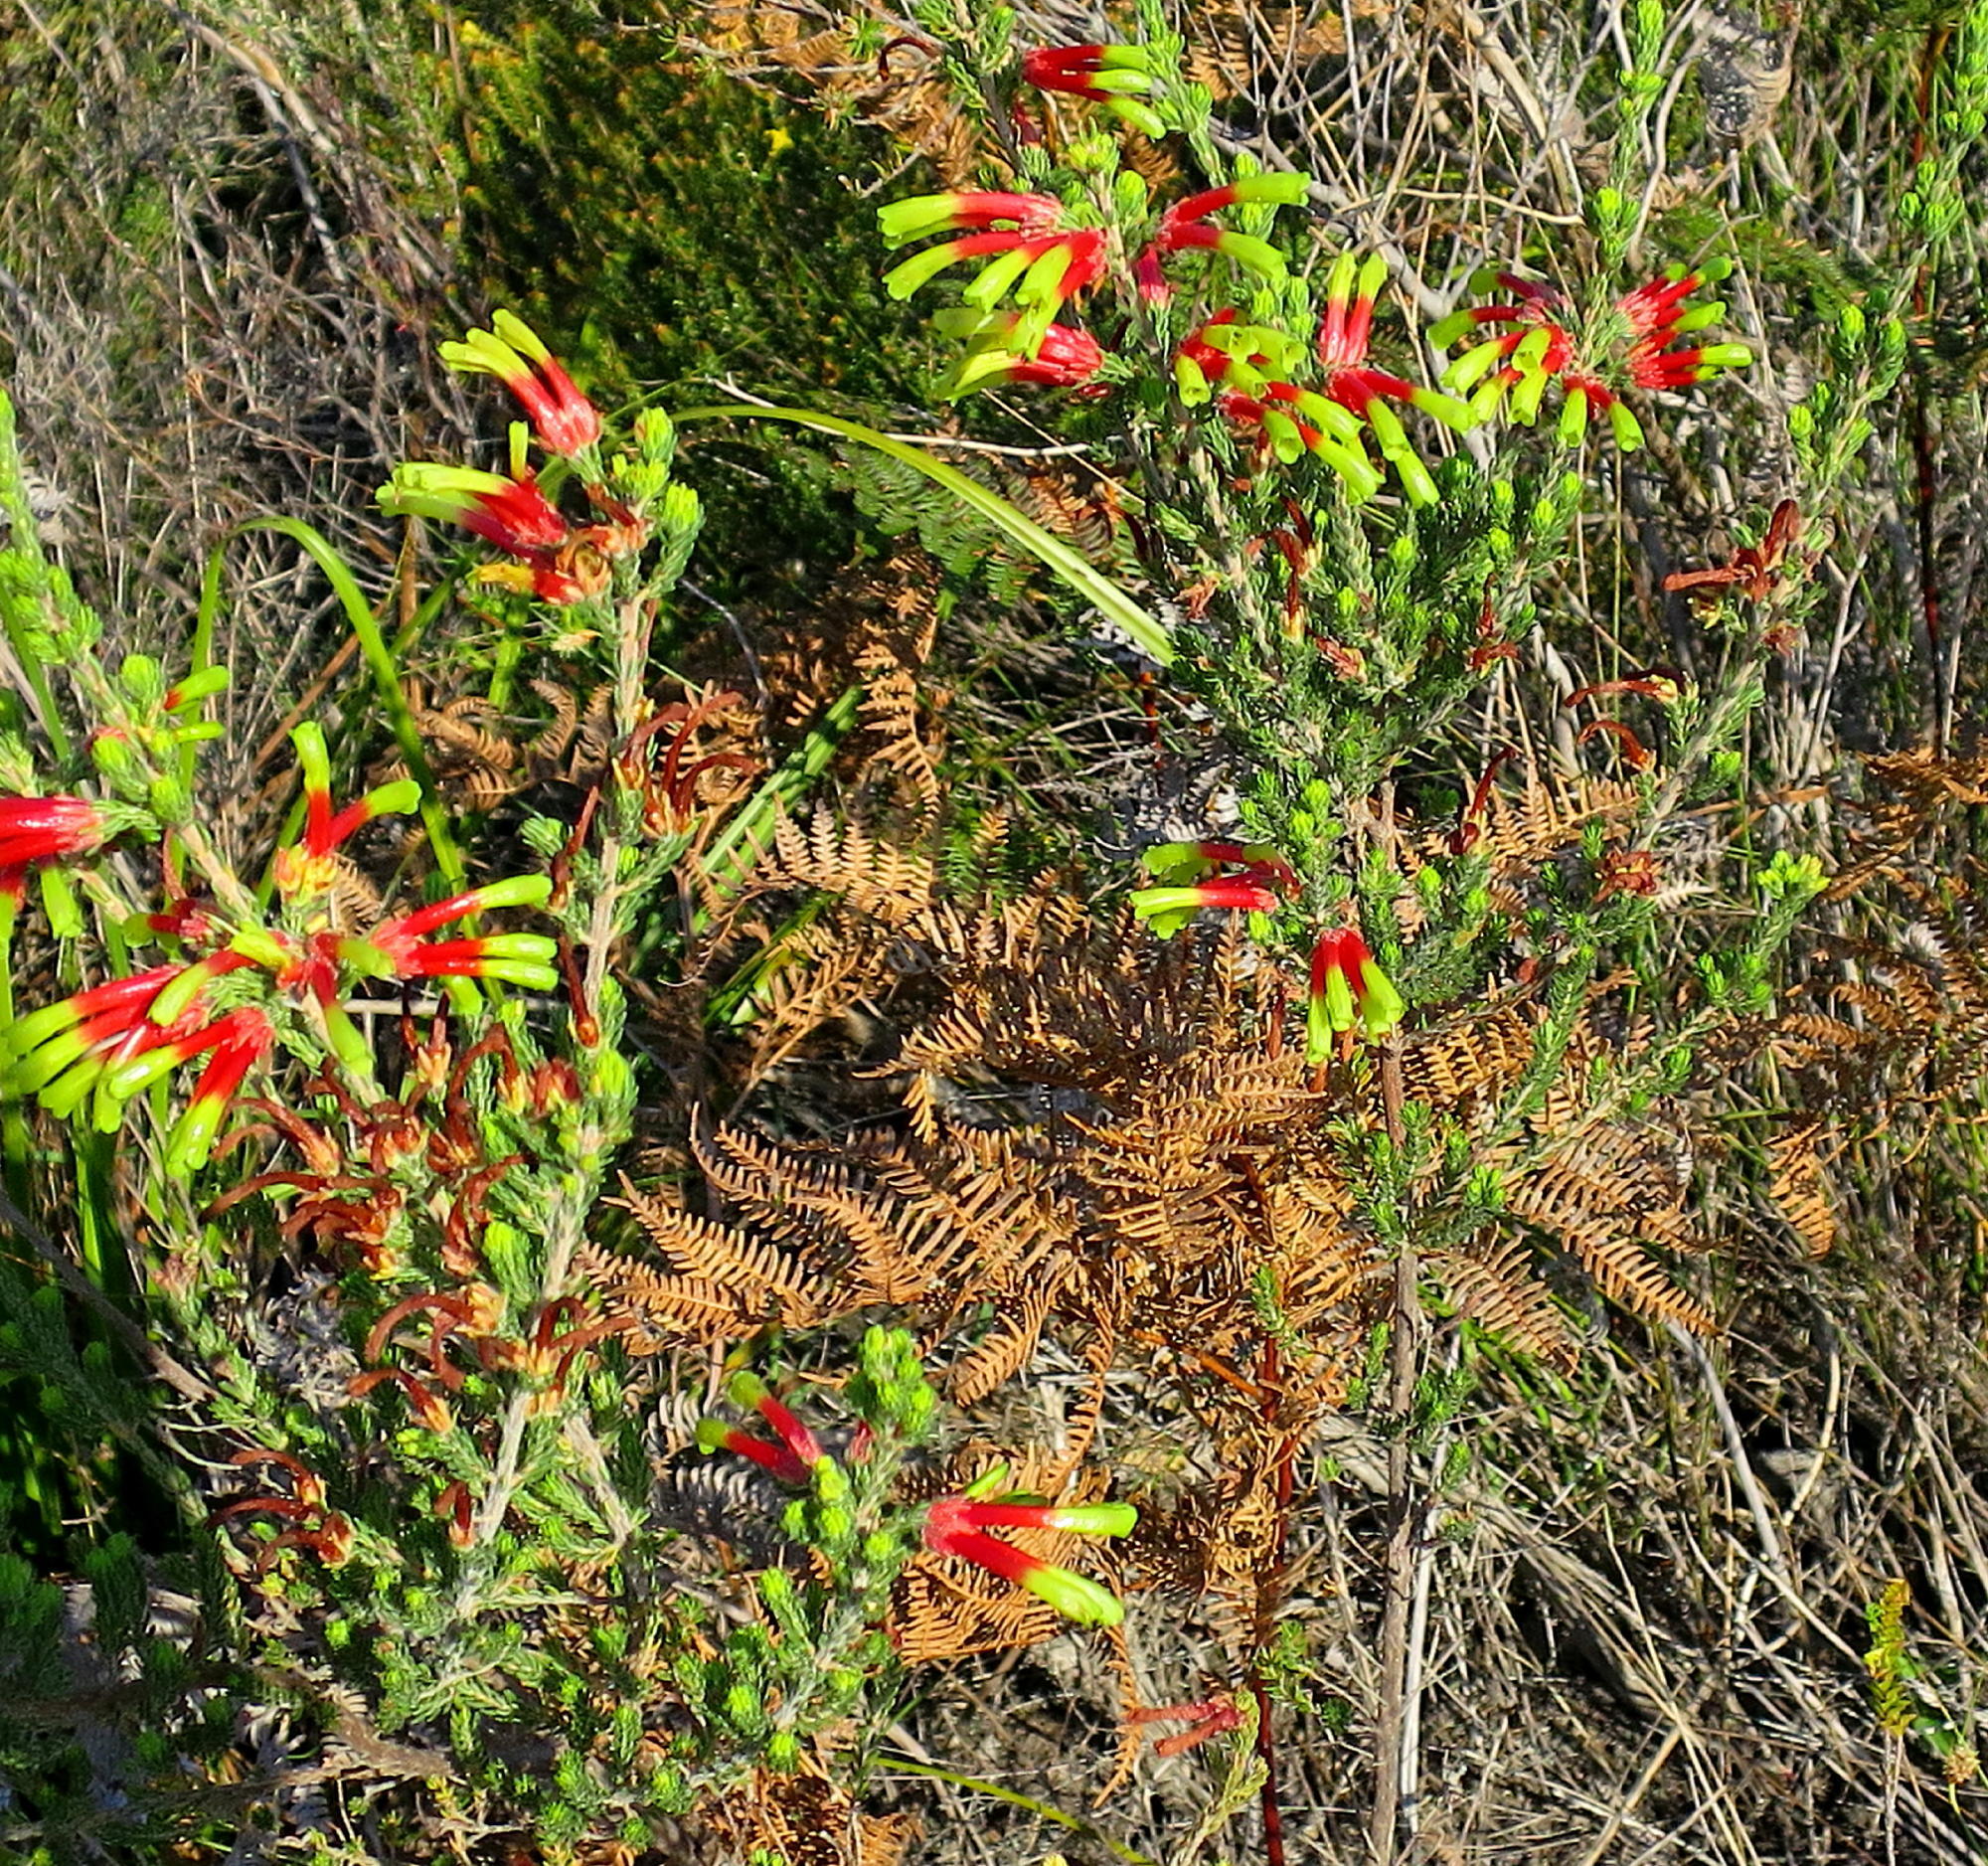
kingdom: Plantae
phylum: Tracheophyta
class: Magnoliopsida
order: Ericales
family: Ericaceae
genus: Erica
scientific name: Erica unicolor
